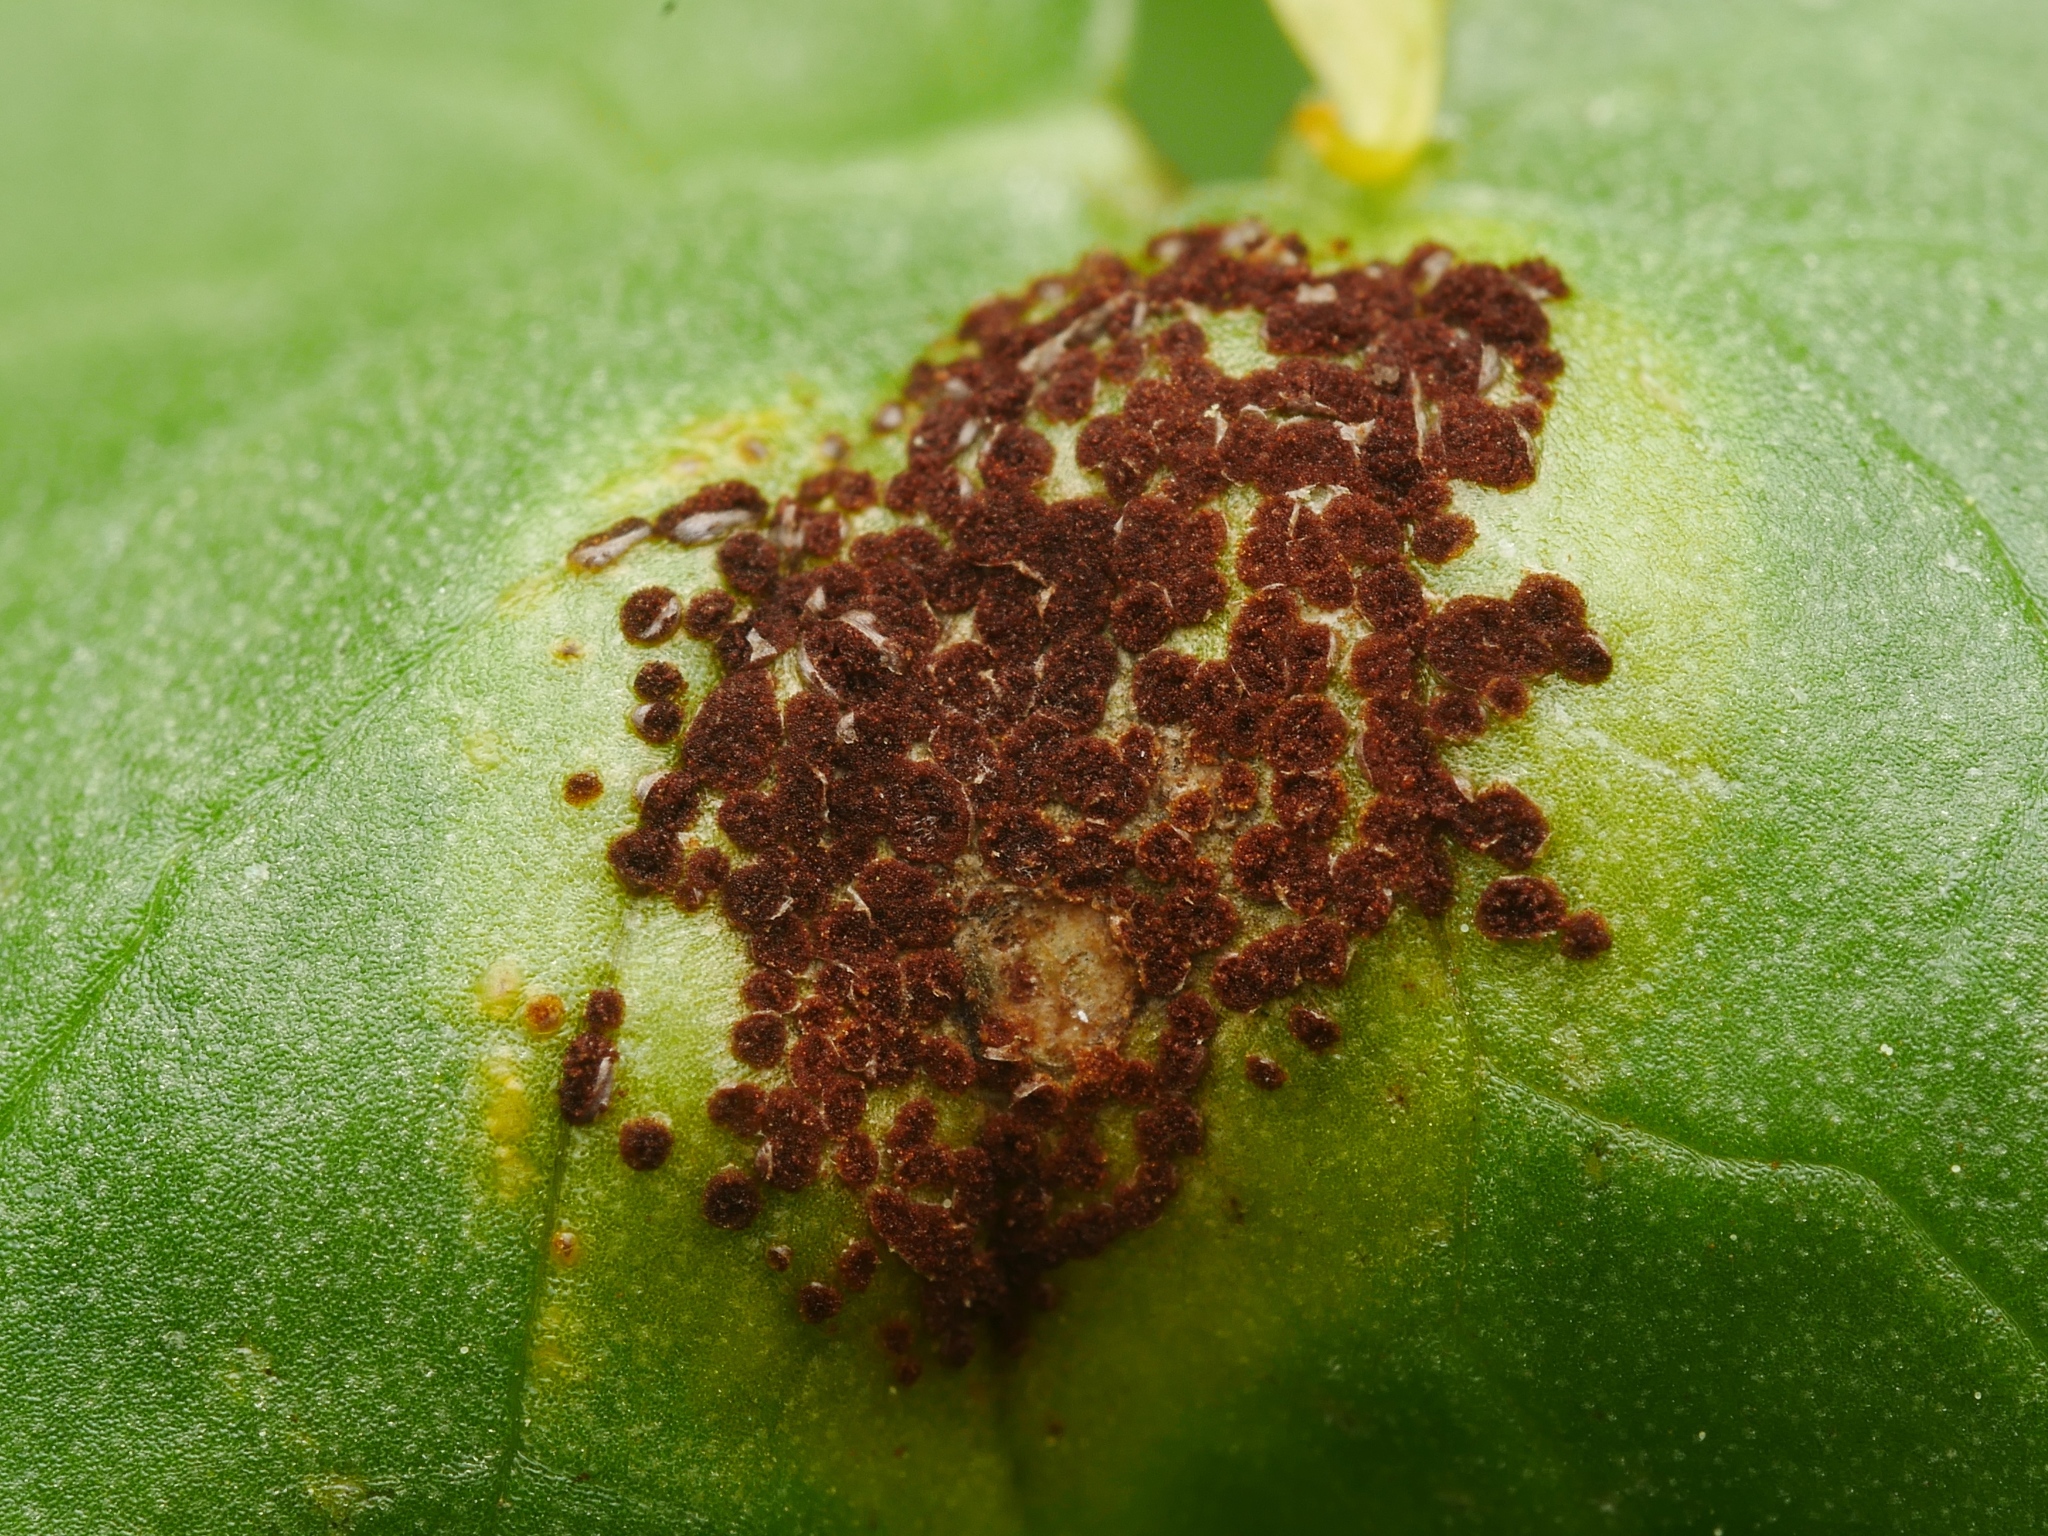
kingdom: Fungi
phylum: Basidiomycota
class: Pucciniomycetes
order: Pucciniales
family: Pucciniaceae
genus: Uromyces
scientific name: Uromyces ficariae
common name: Bitter chocolate rust
